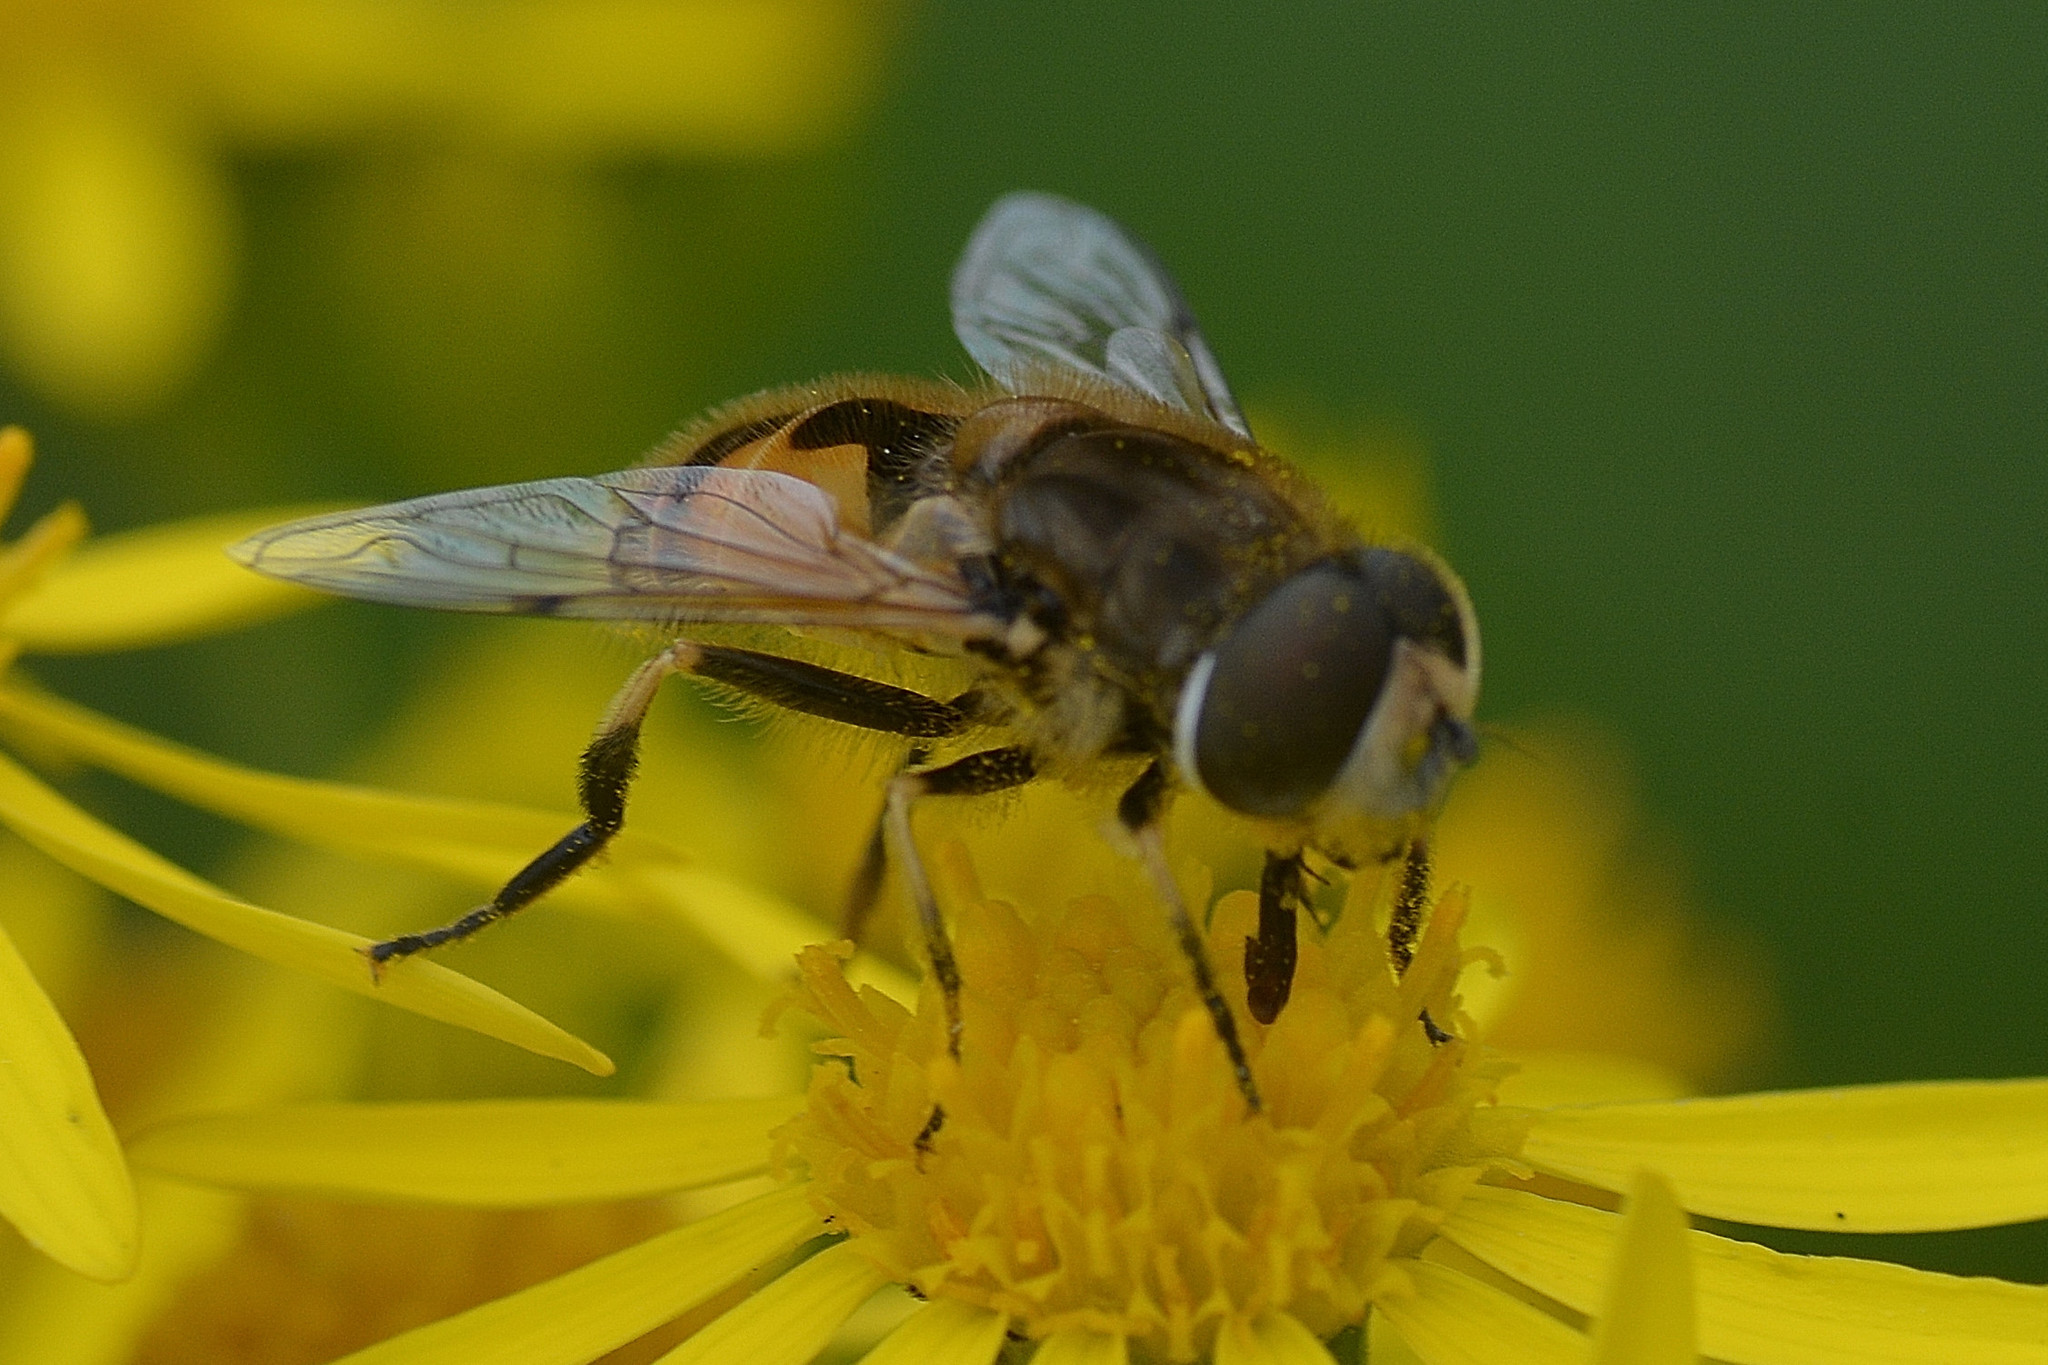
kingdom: Animalia
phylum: Arthropoda
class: Insecta
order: Diptera
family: Syrphidae
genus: Eristalis
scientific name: Eristalis arbustorum
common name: Hover fly
